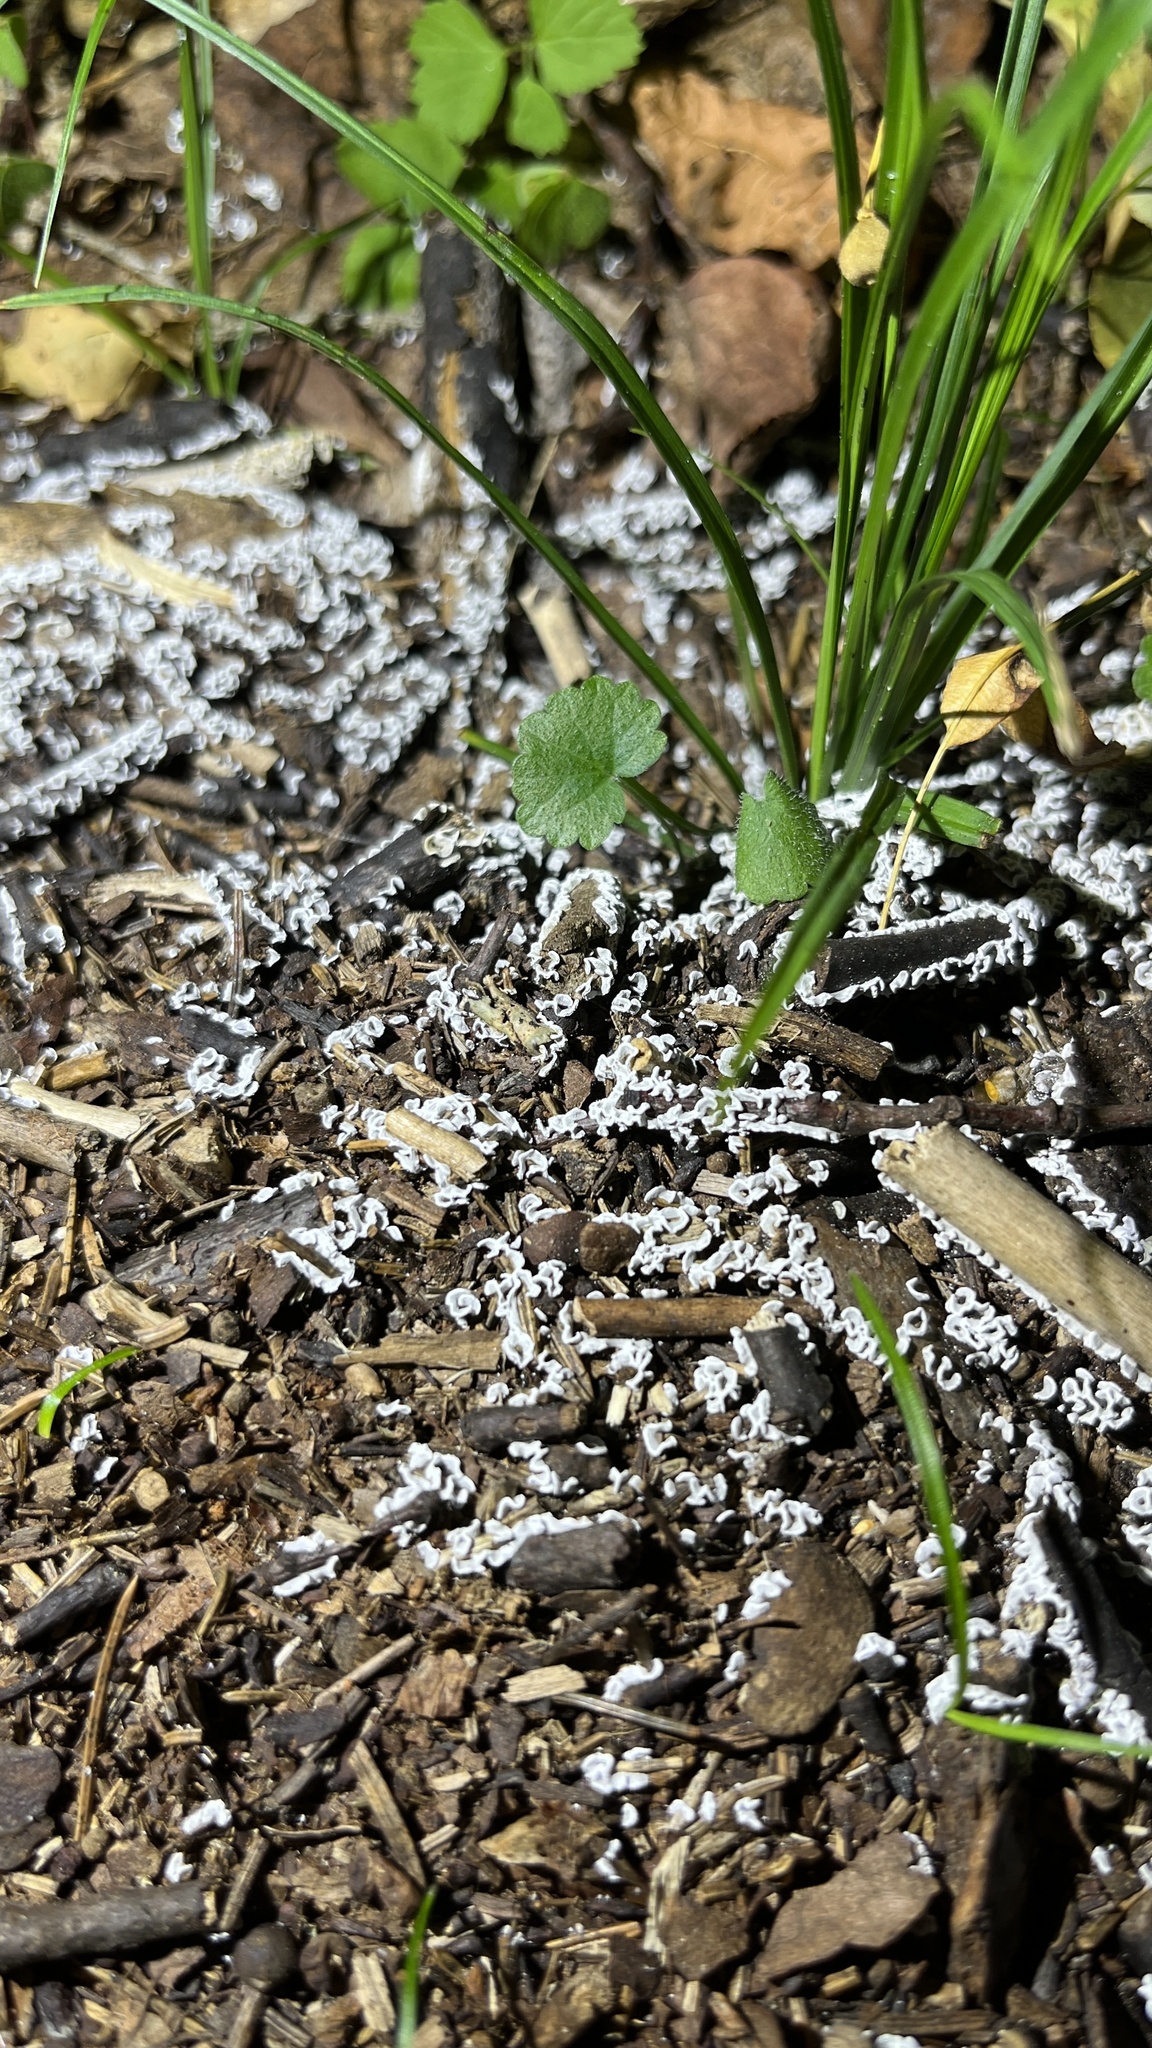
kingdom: Protozoa
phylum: Mycetozoa
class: Myxomycetes
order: Physarales
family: Physaraceae
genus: Physarum
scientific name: Physarum bivalve
